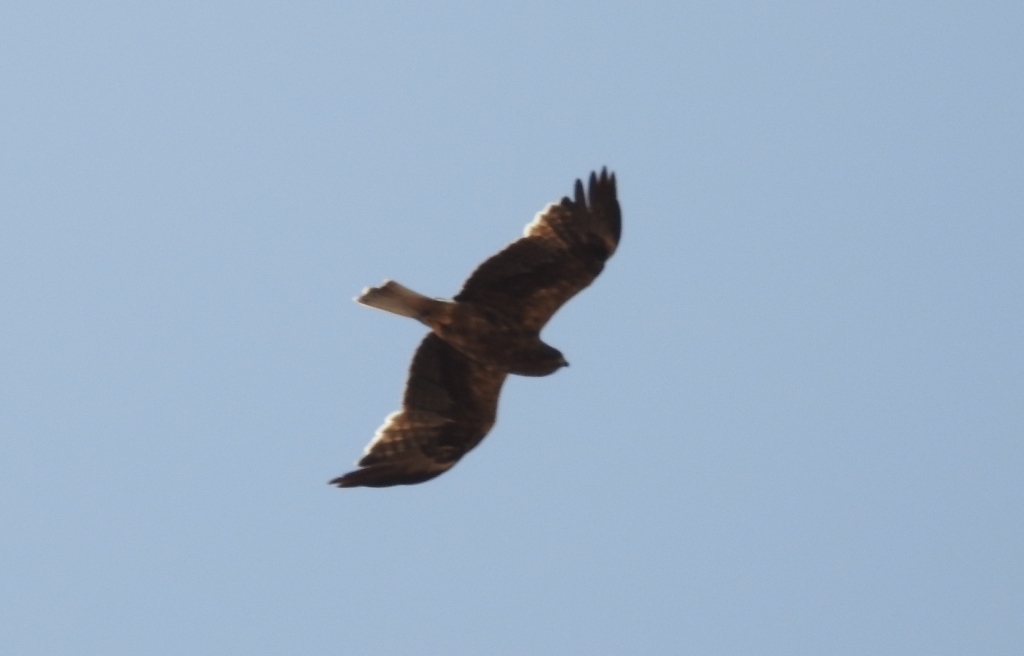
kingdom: Animalia
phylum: Chordata
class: Aves
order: Accipitriformes
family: Accipitridae
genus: Hieraaetus
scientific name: Hieraaetus pennatus
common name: Booted eagle
